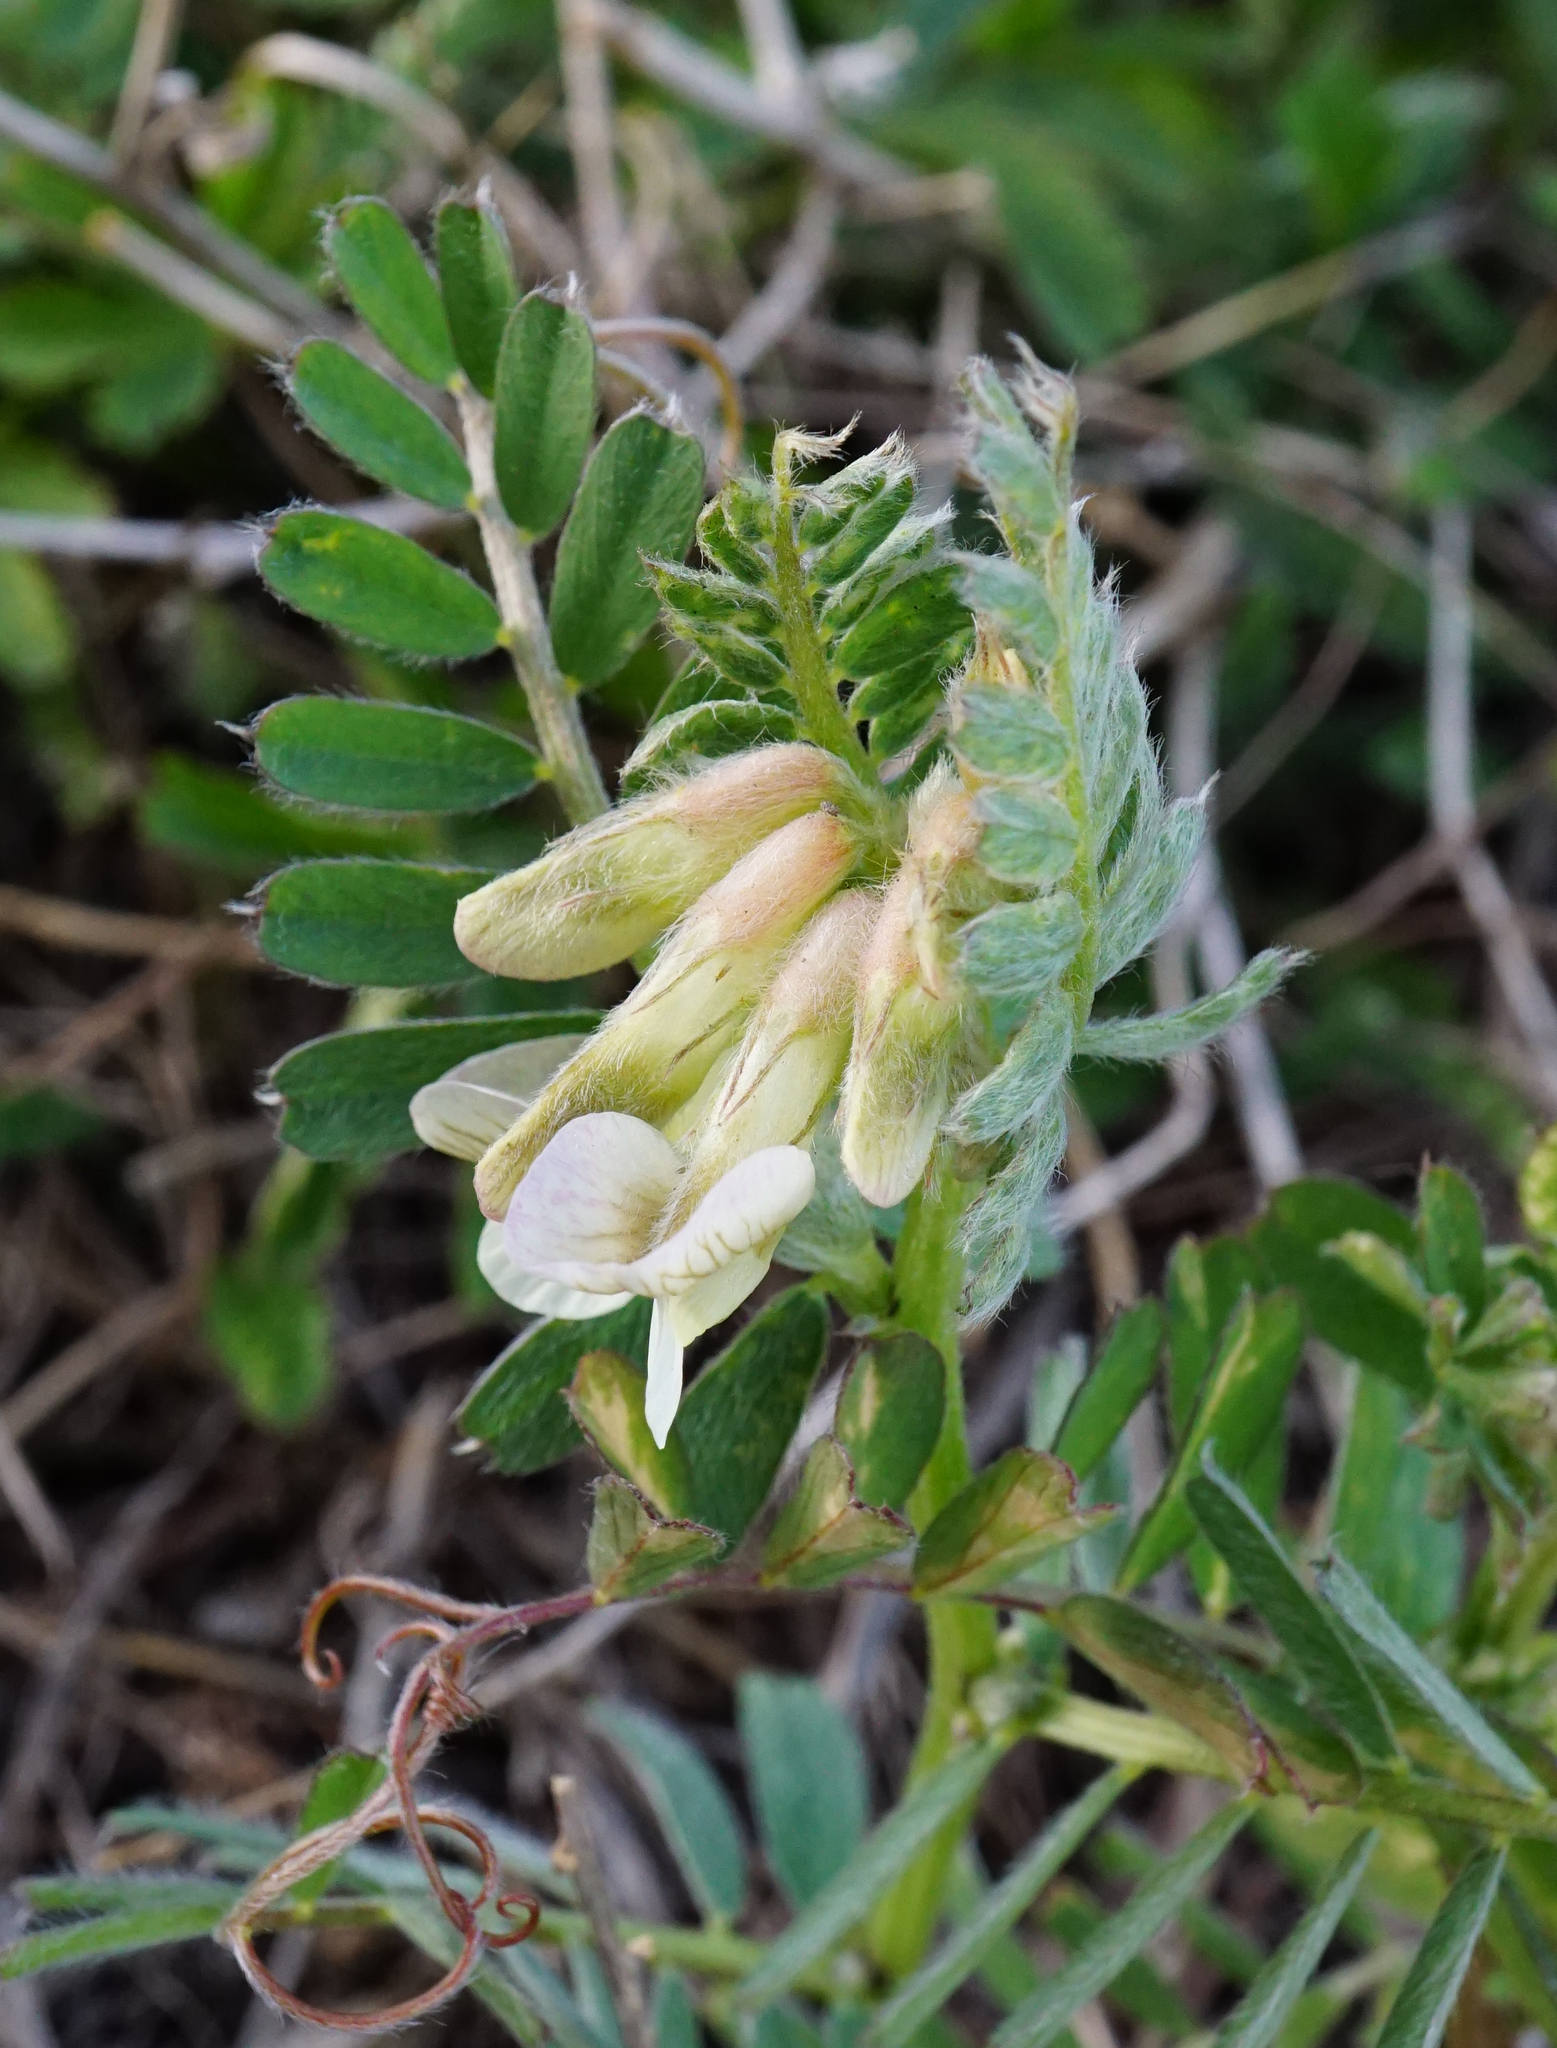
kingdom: Plantae
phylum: Tracheophyta
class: Magnoliopsida
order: Fabales
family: Fabaceae
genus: Vicia
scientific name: Vicia pannonica
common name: Hungarian vetch
